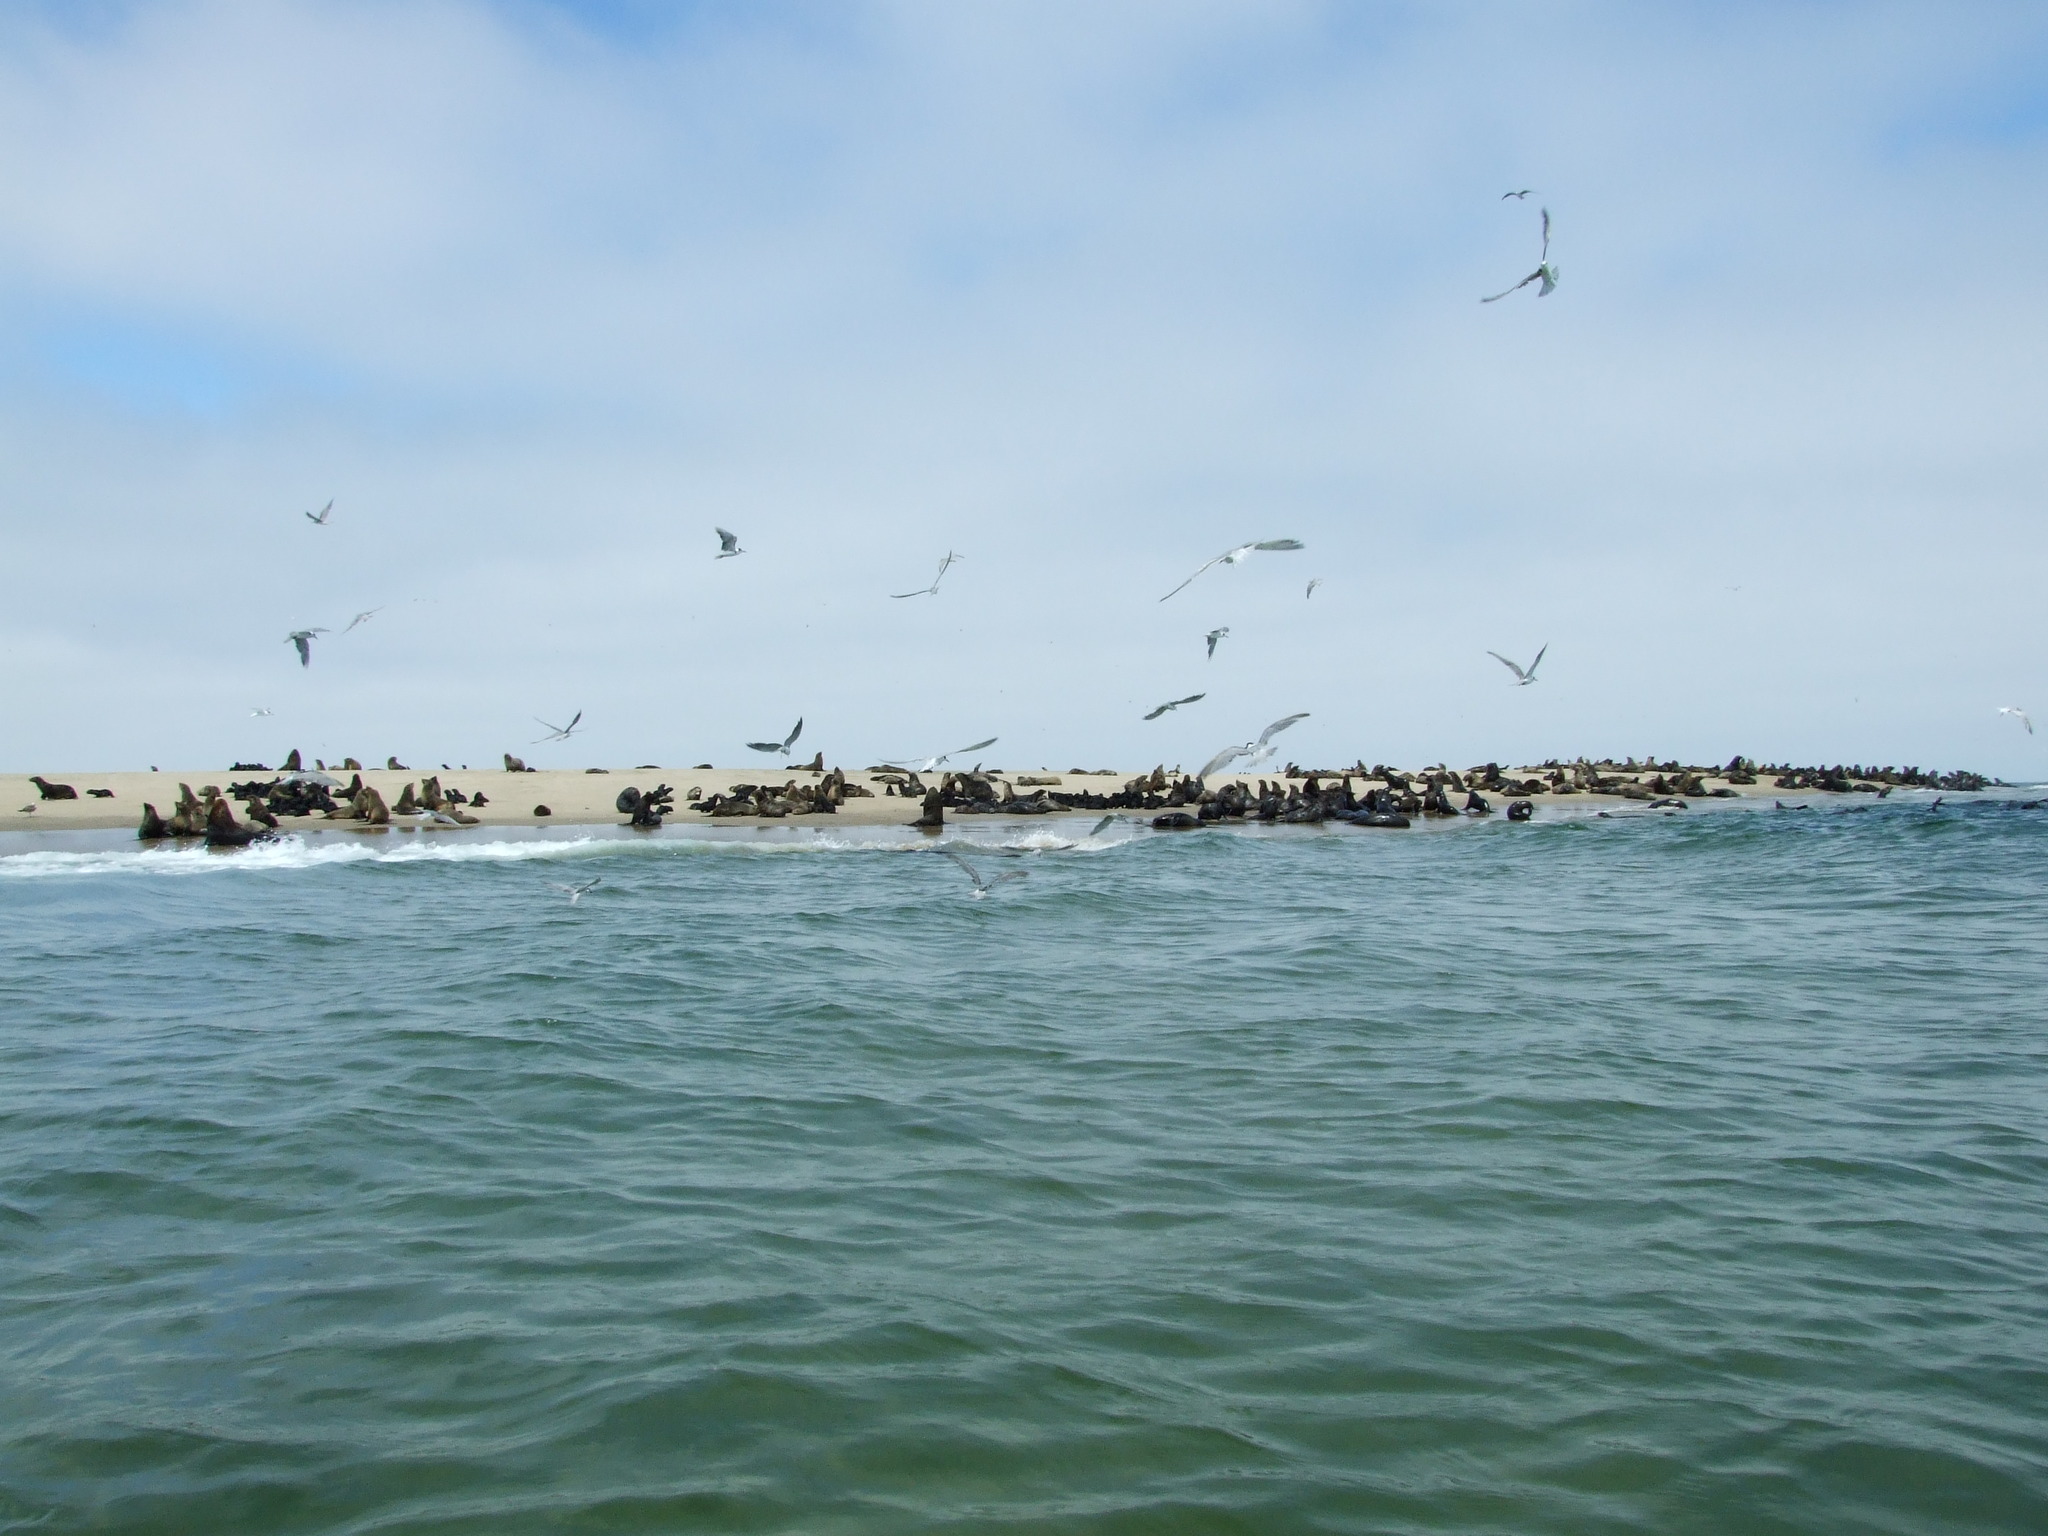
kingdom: Animalia
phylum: Chordata
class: Mammalia
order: Carnivora
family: Otariidae
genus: Arctocephalus
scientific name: Arctocephalus pusillus
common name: Brown fur seal
